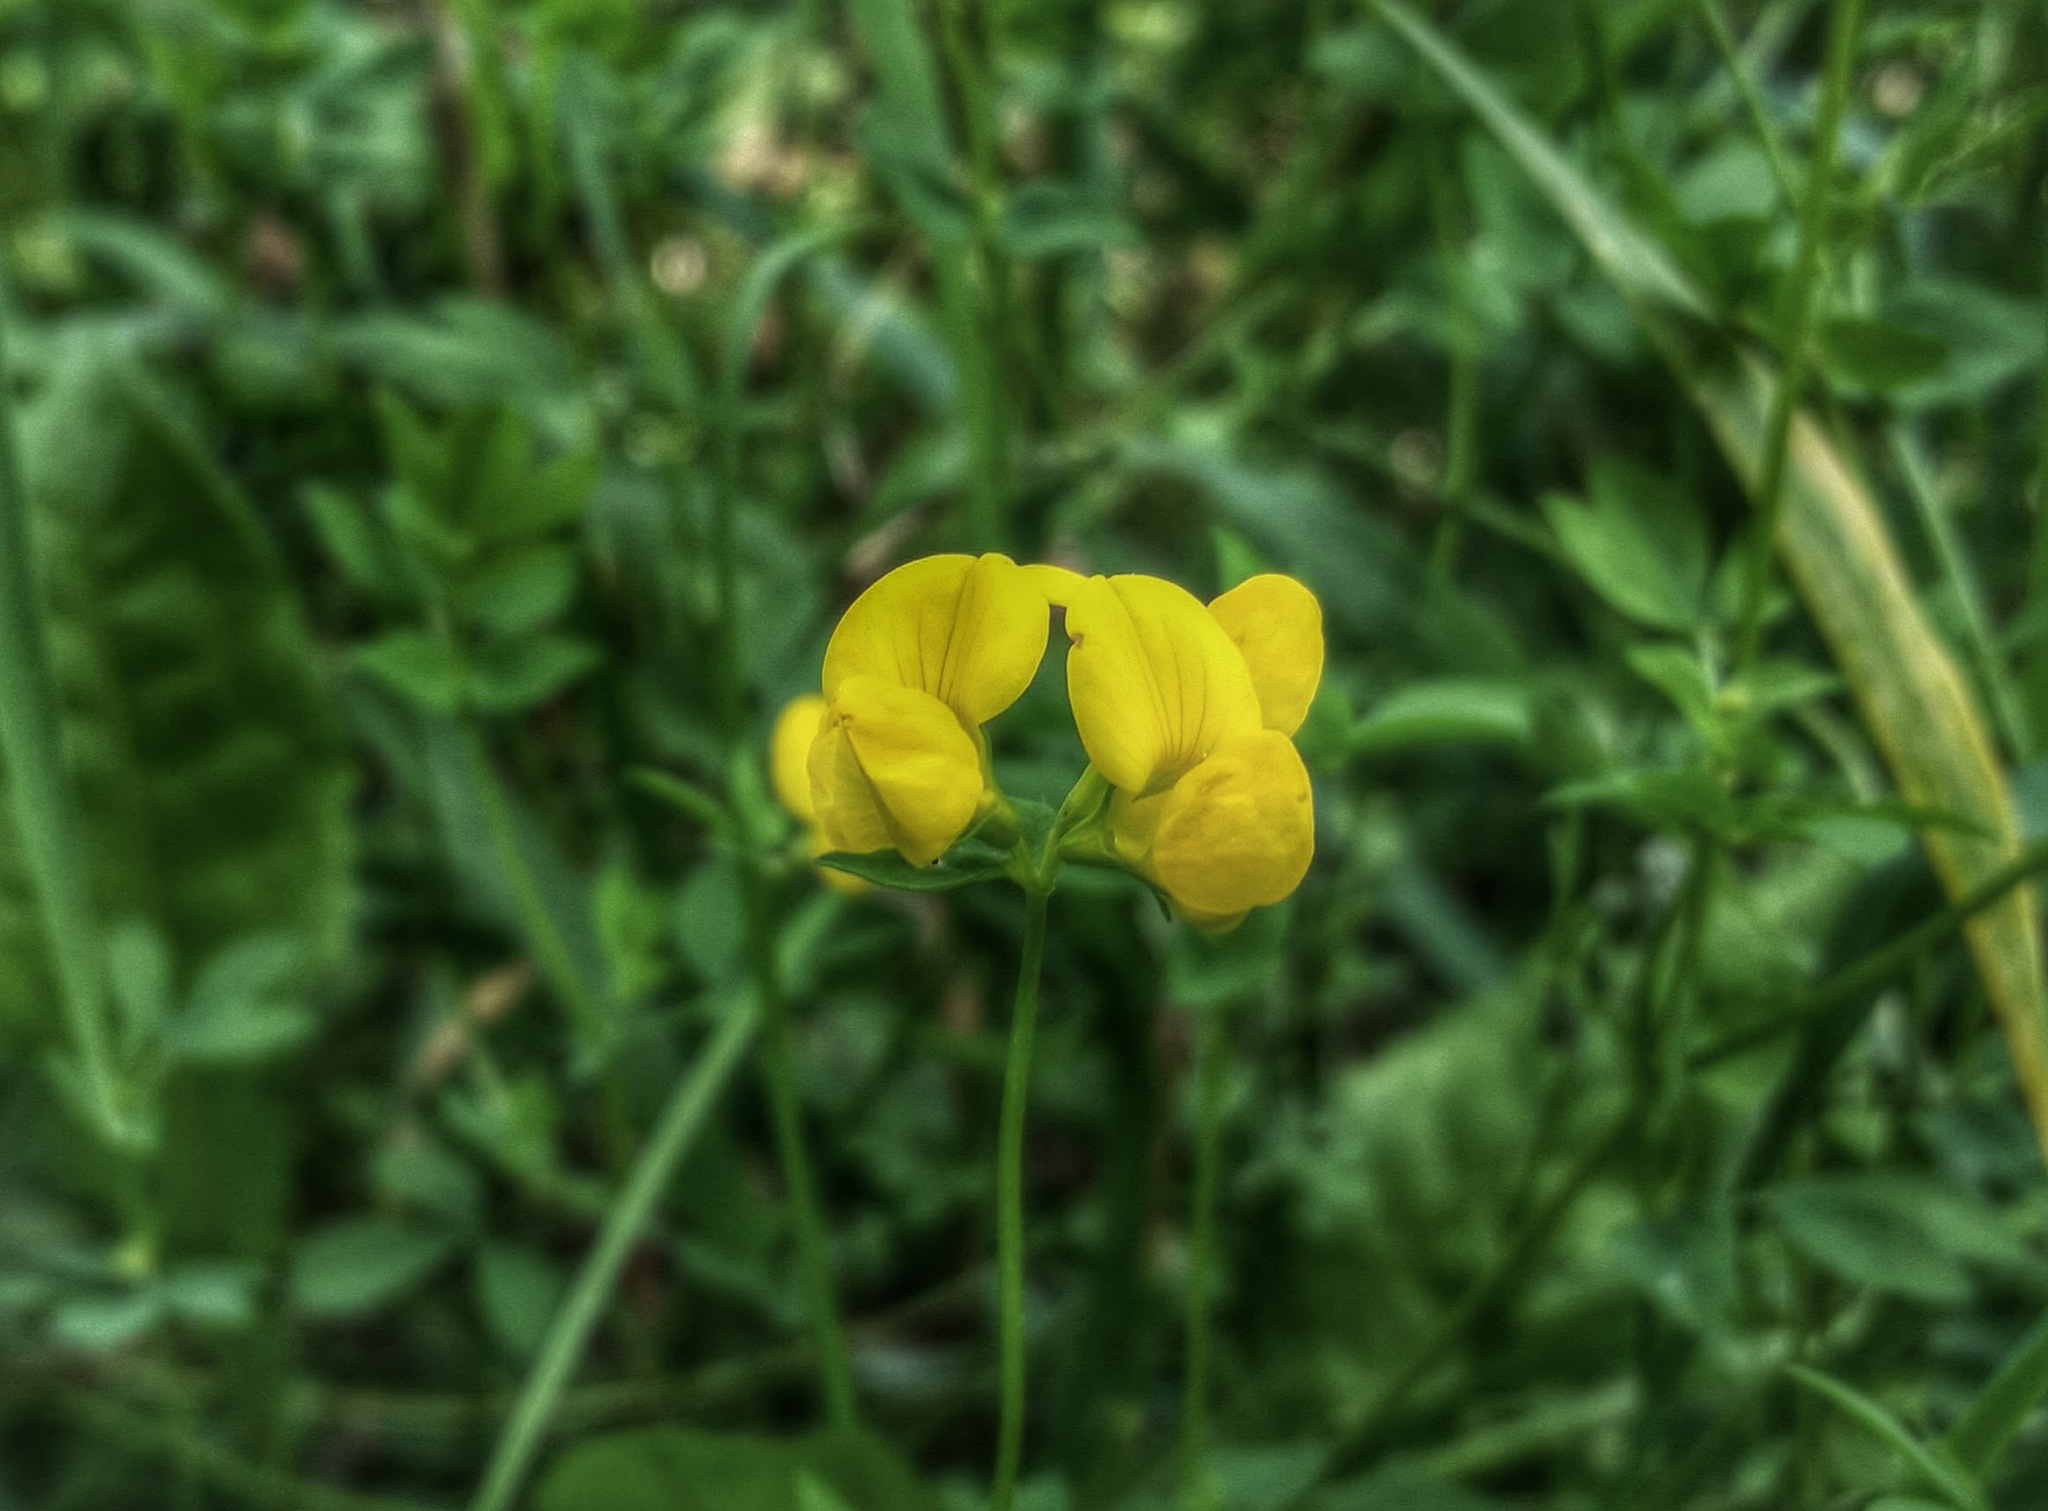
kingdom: Plantae
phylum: Tracheophyta
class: Magnoliopsida
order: Fabales
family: Fabaceae
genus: Lotus
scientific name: Lotus corniculatus
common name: Common bird's-foot-trefoil
